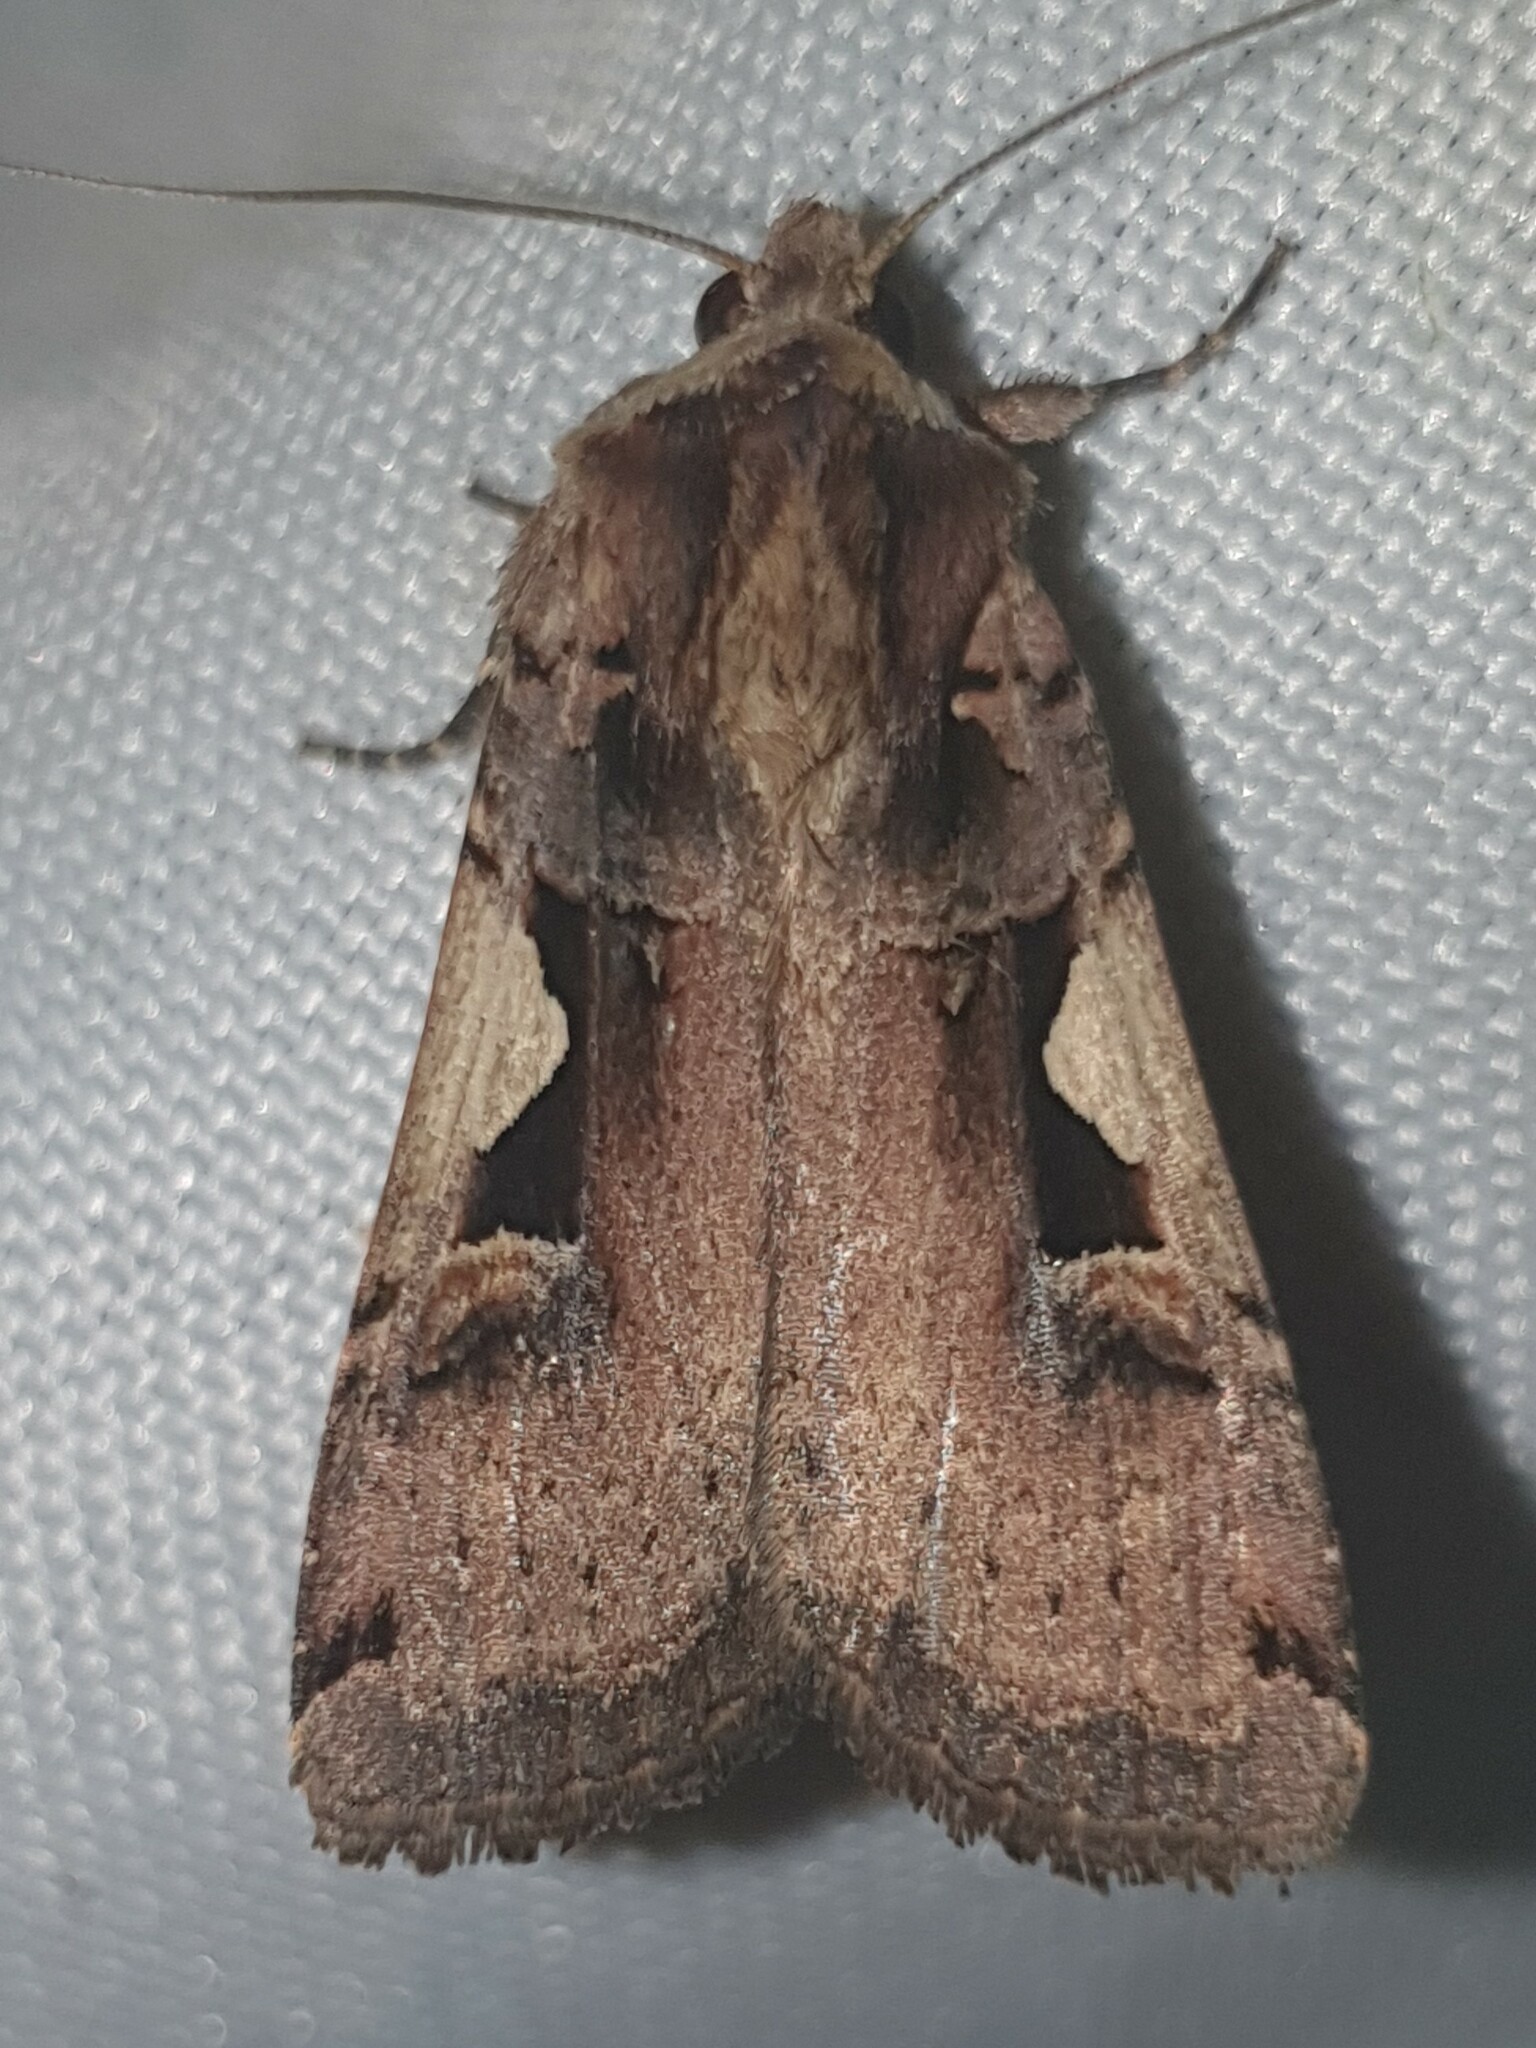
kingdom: Animalia
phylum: Arthropoda
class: Insecta
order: Lepidoptera
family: Noctuidae
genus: Xestia
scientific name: Xestia c-nigrum
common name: Setaceous hebrew character
